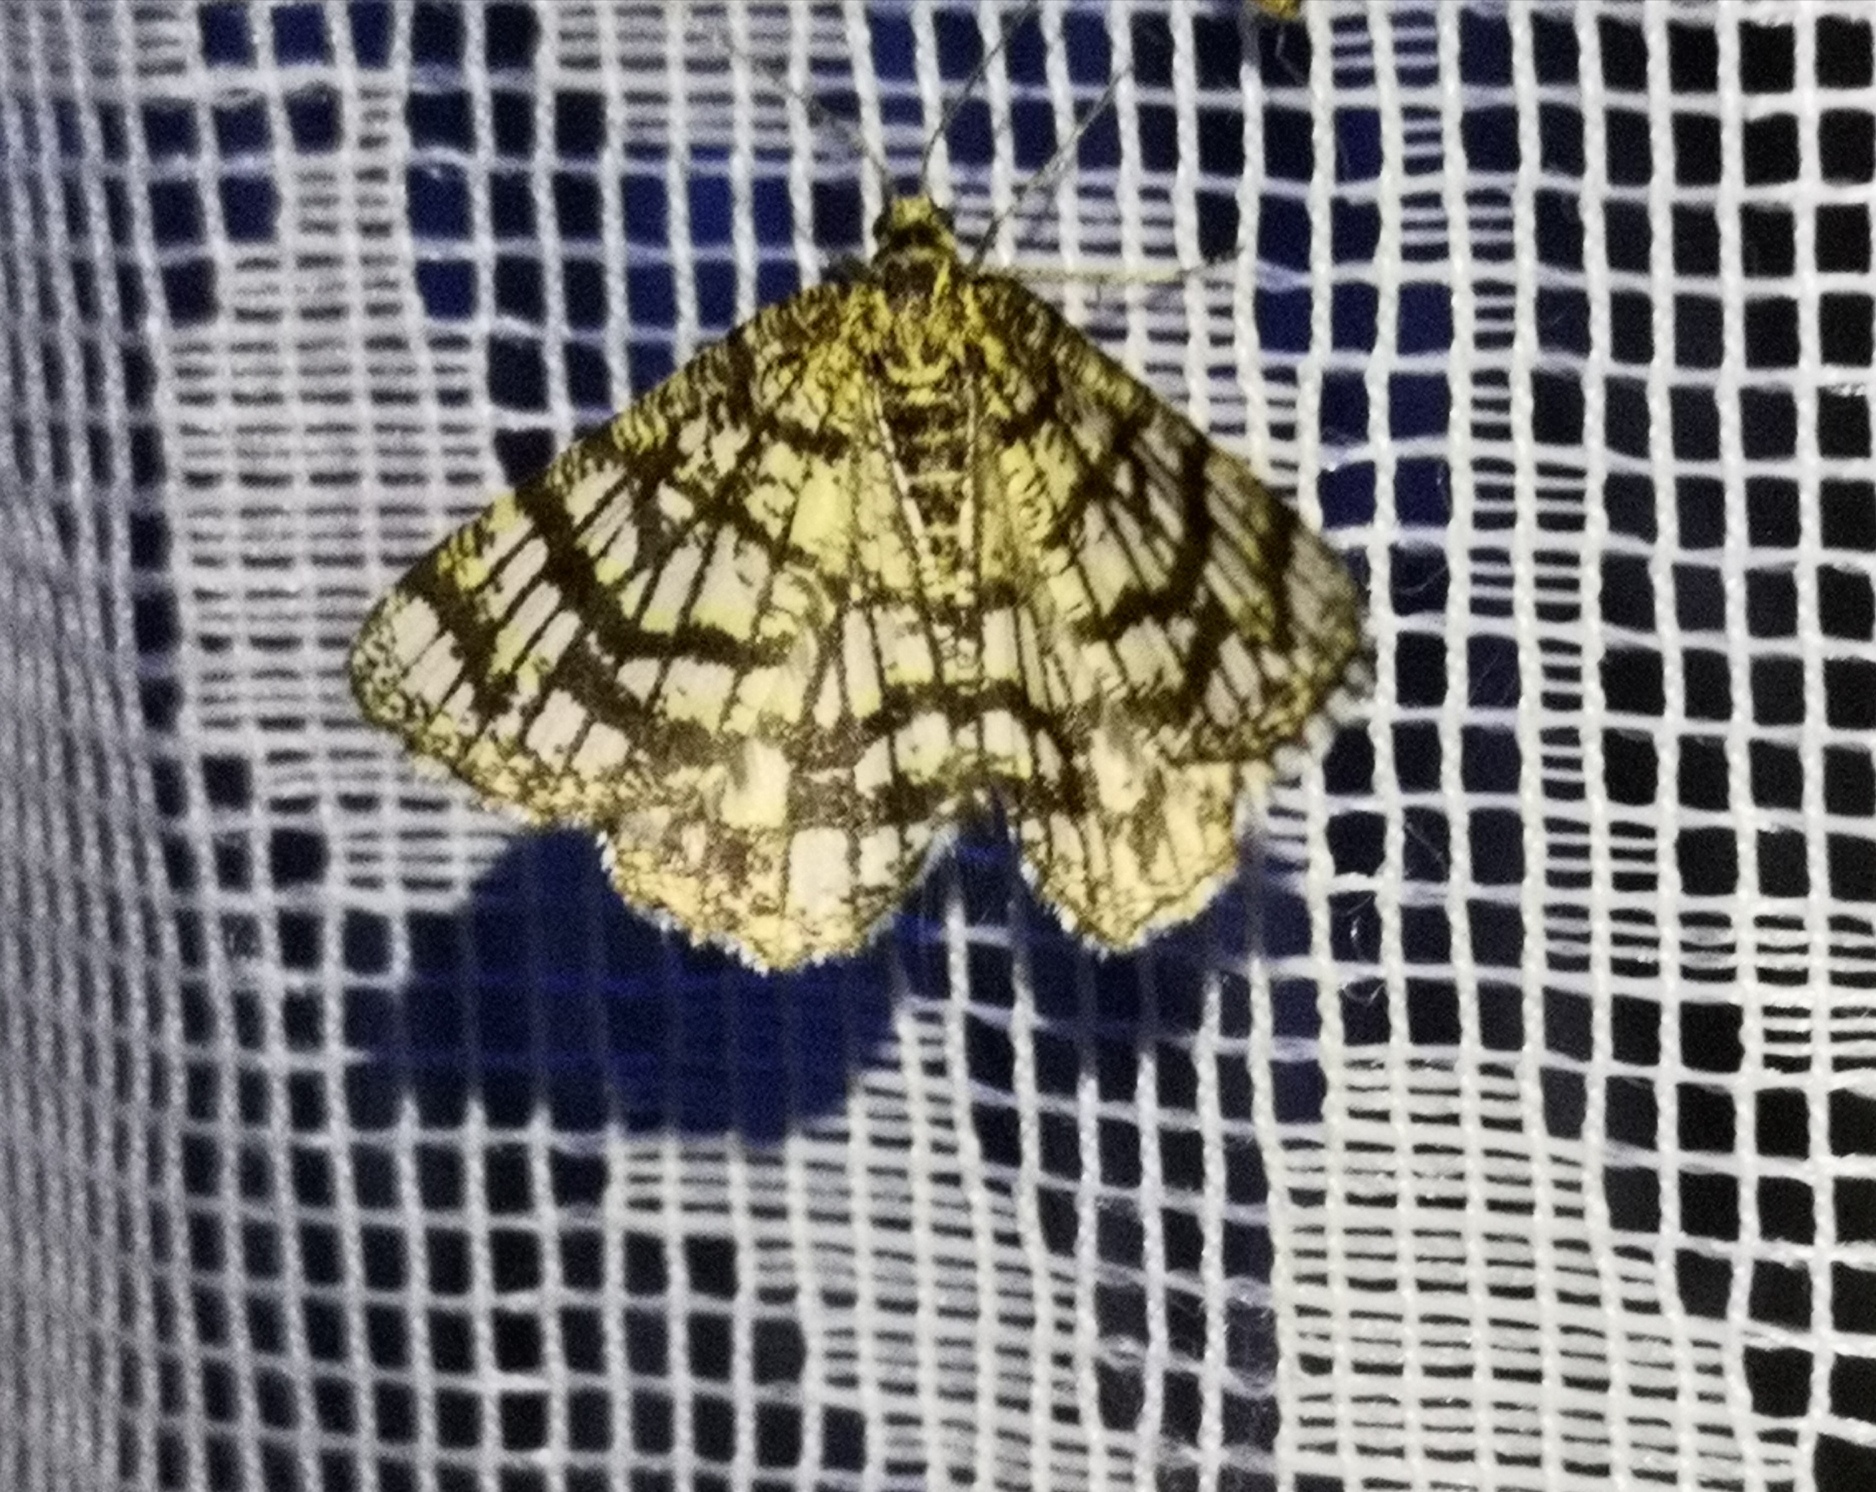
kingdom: Animalia
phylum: Arthropoda
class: Insecta
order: Lepidoptera
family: Geometridae
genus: Chiasmia
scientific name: Chiasmia clathrata
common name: Latticed heath
